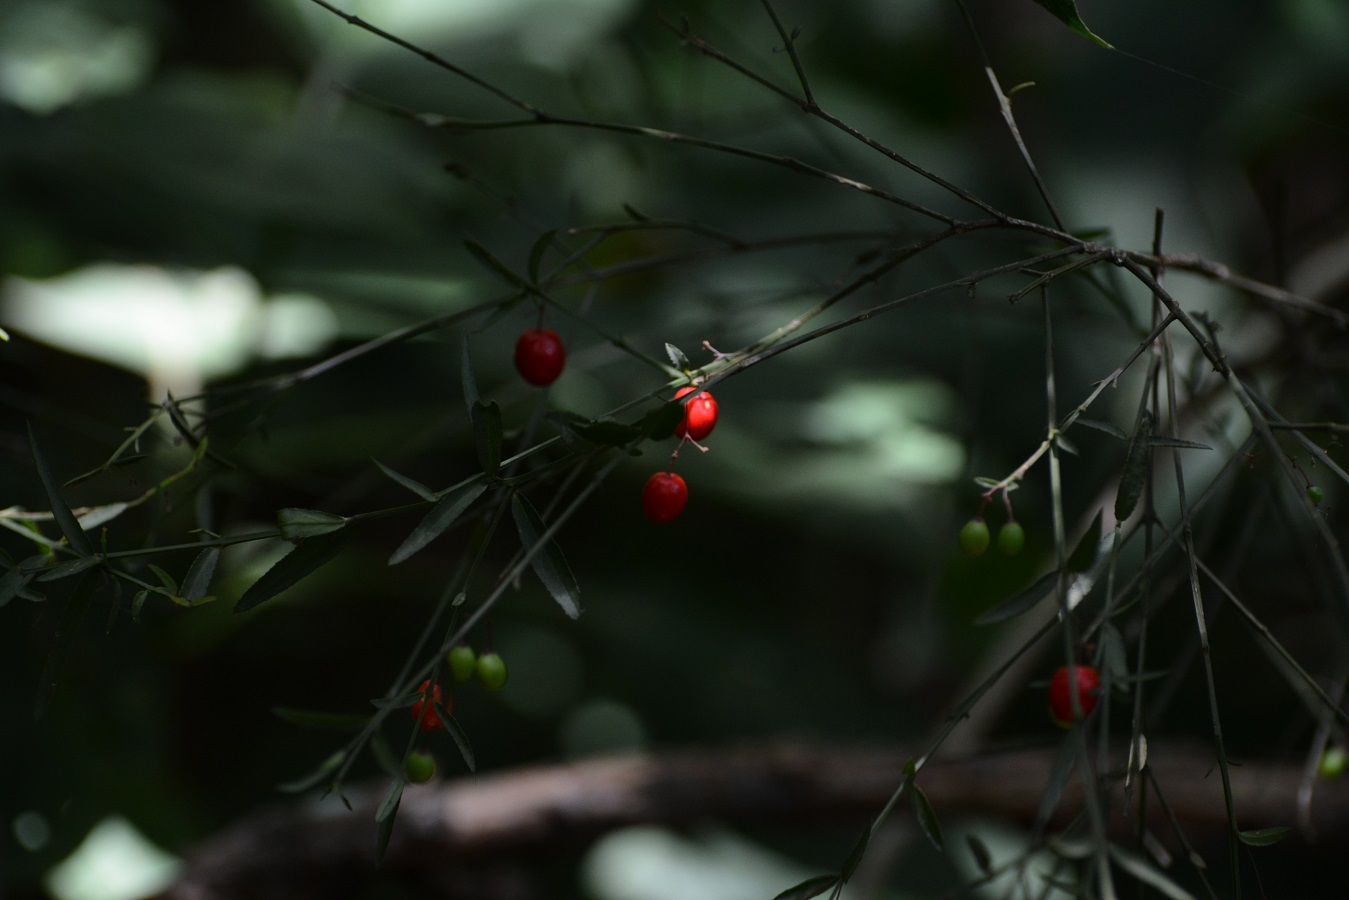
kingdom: Plantae
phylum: Tracheophyta
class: Magnoliopsida
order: Celastrales
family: Celastraceae
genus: Crossopetalum
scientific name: Crossopetalum uragoga
